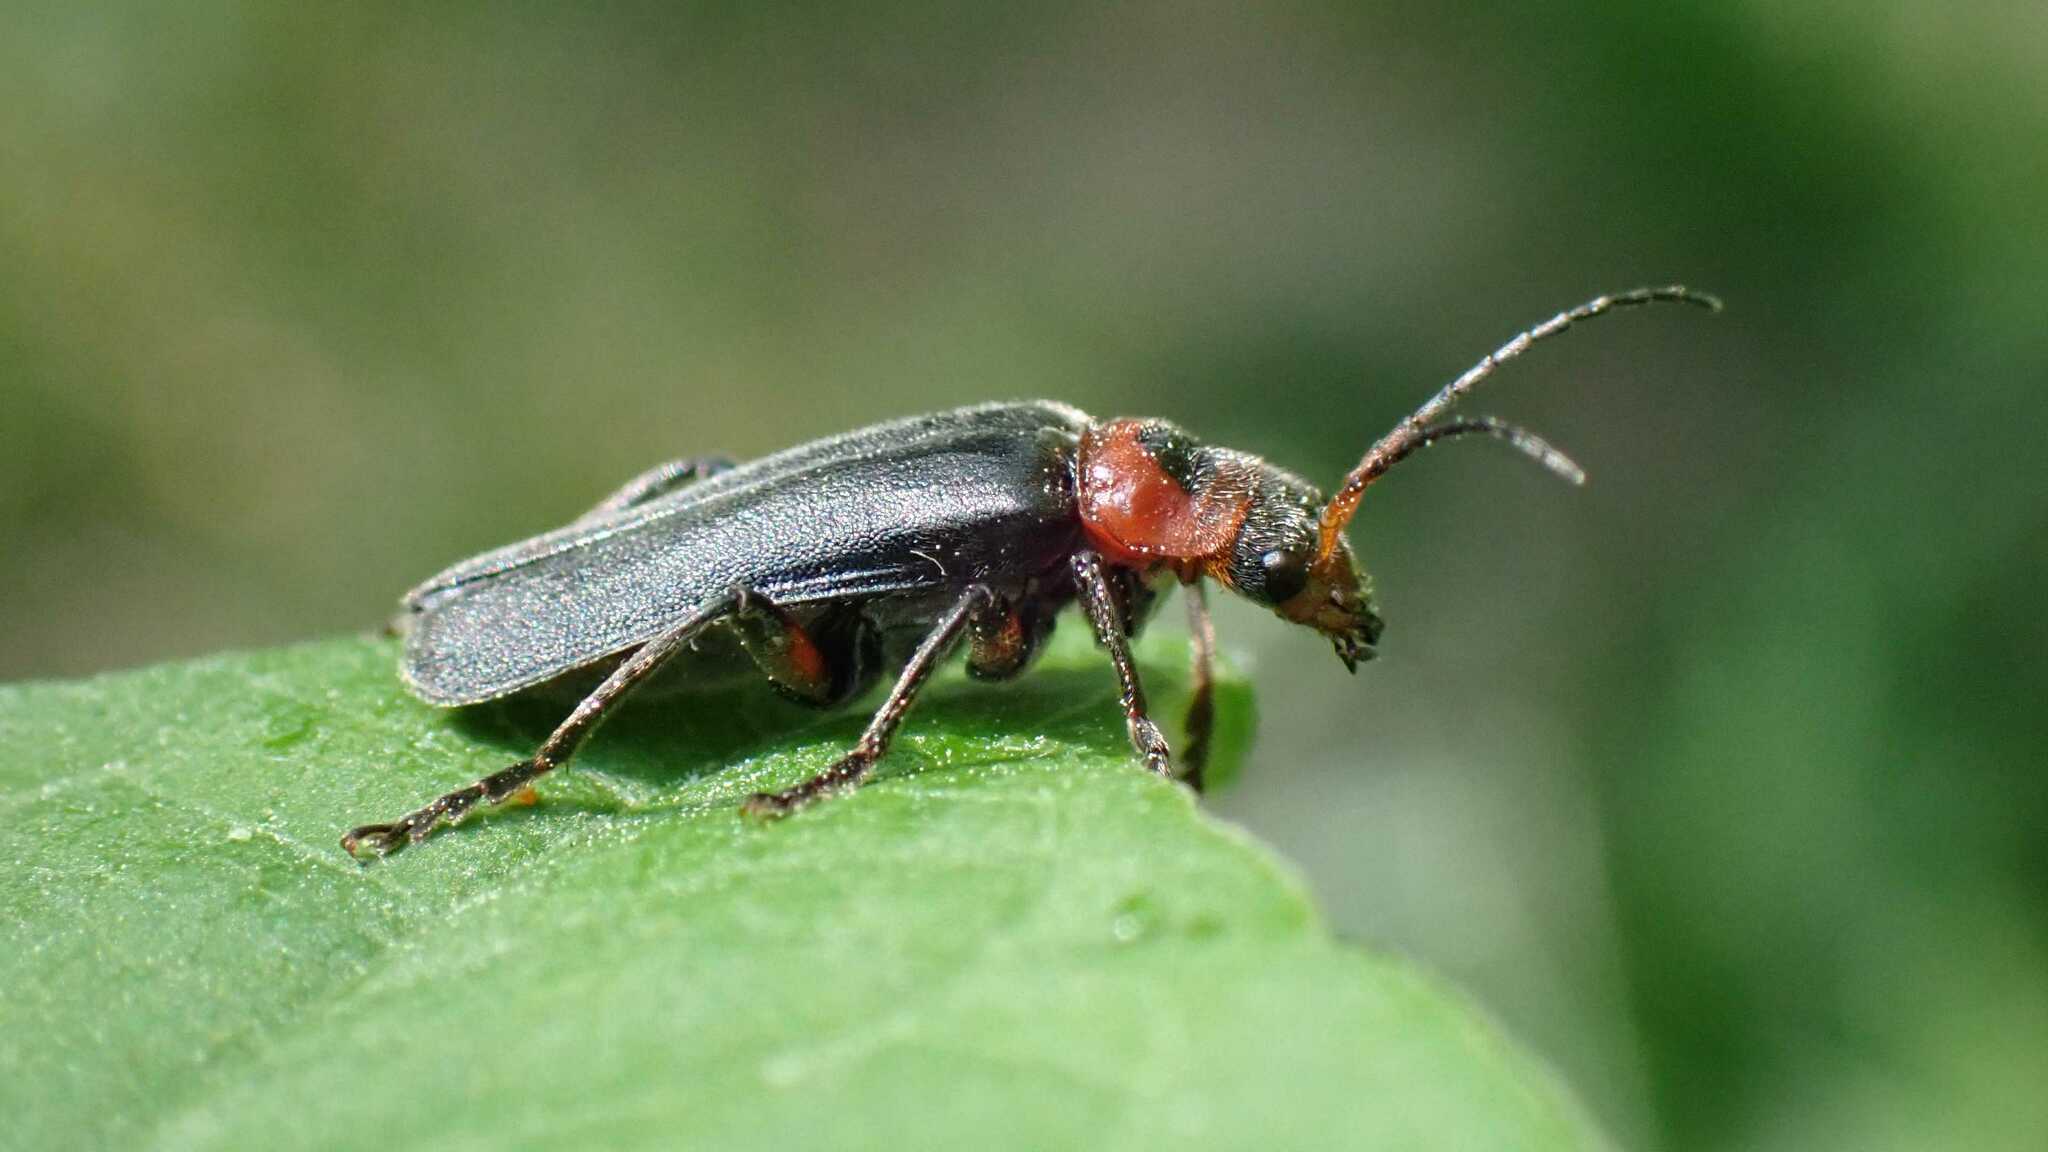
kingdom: Animalia
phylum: Arthropoda
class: Insecta
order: Coleoptera
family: Cantharidae
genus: Cantharis
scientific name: Cantharis rustica
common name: Soldier beetle
